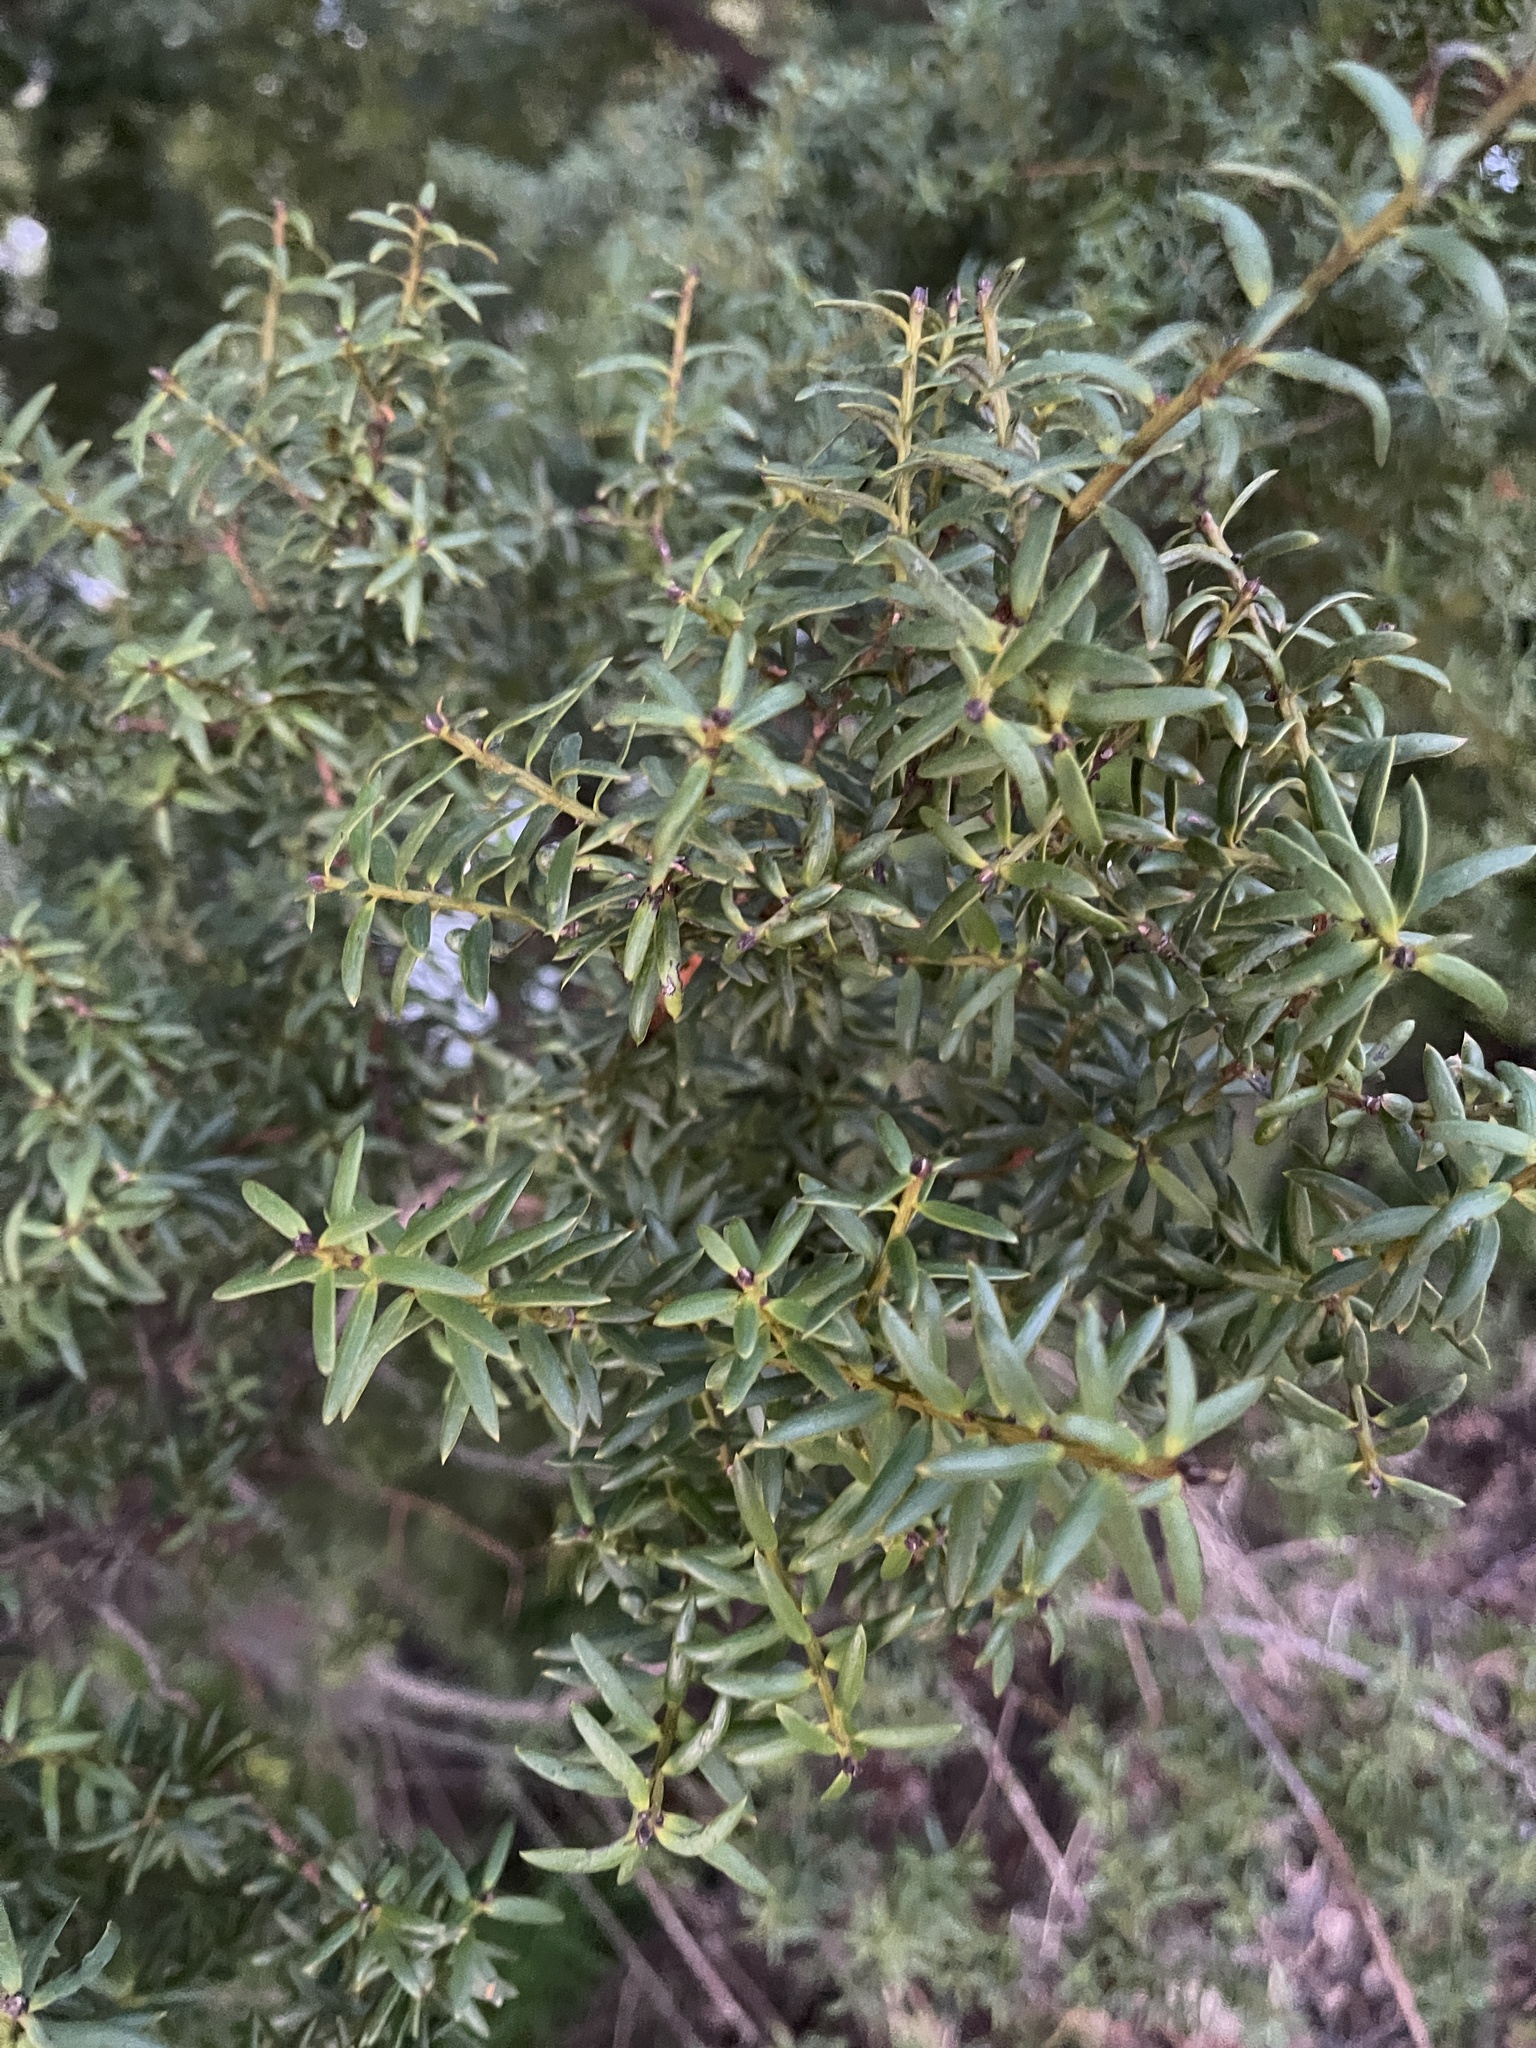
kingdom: Plantae
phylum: Tracheophyta
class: Pinopsida
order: Pinales
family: Podocarpaceae
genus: Podocarpus
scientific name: Podocarpus totara
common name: Totara
